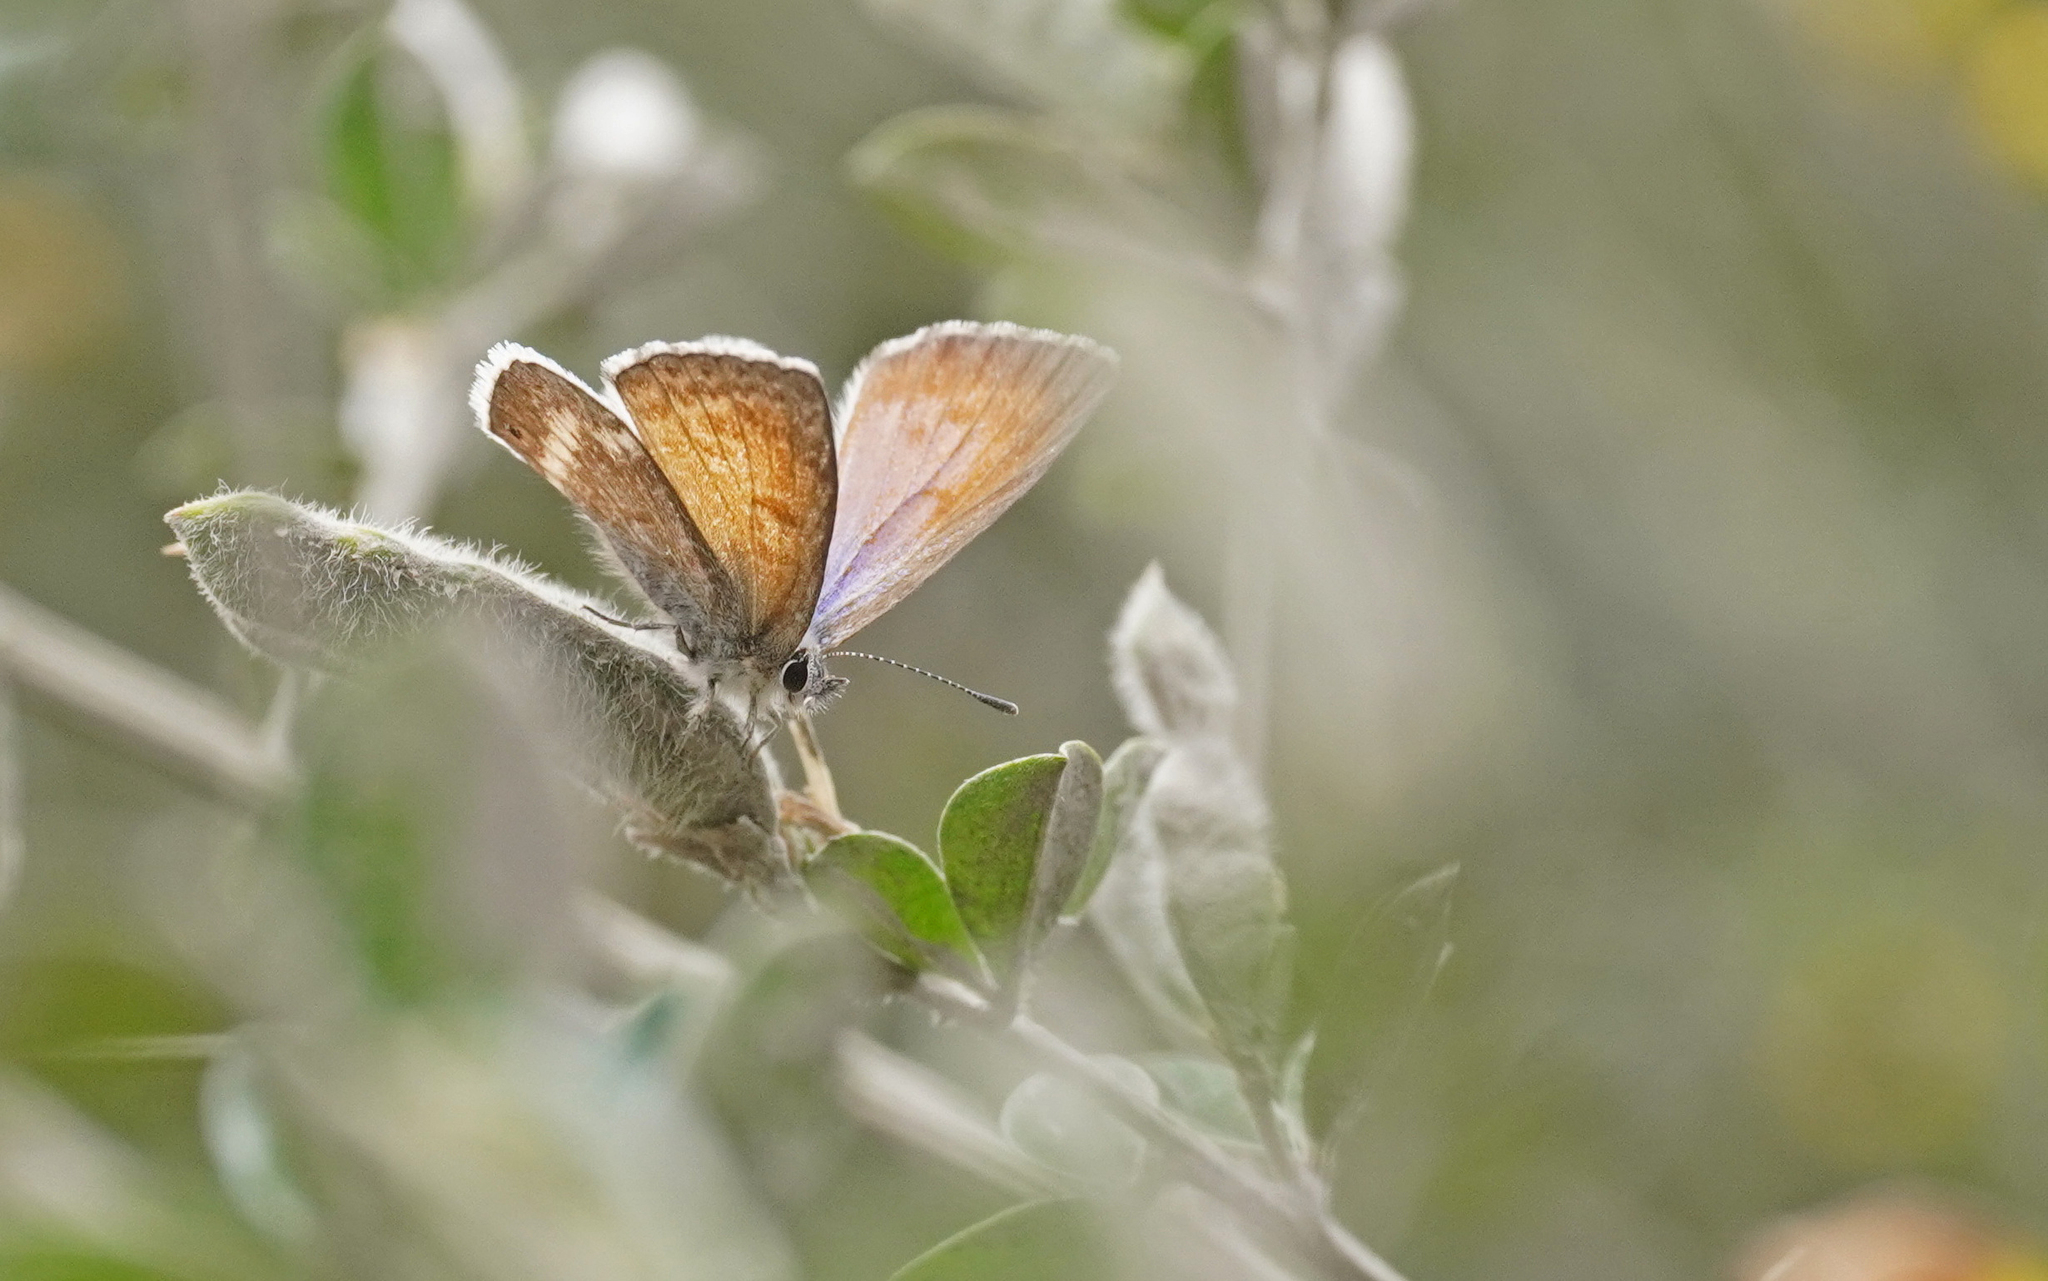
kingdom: Animalia
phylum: Arthropoda
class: Insecta
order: Lepidoptera
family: Lycaenidae
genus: Leptotes
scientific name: Leptotes callanga
